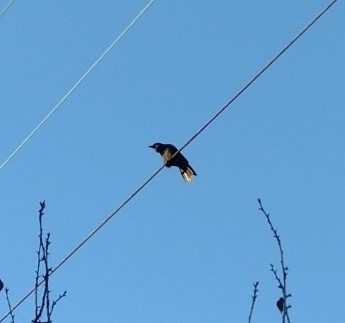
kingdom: Animalia
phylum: Chordata
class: Aves
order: Passeriformes
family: Corvidae
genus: Corvus
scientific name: Corvus brachyrhynchos
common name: American crow
